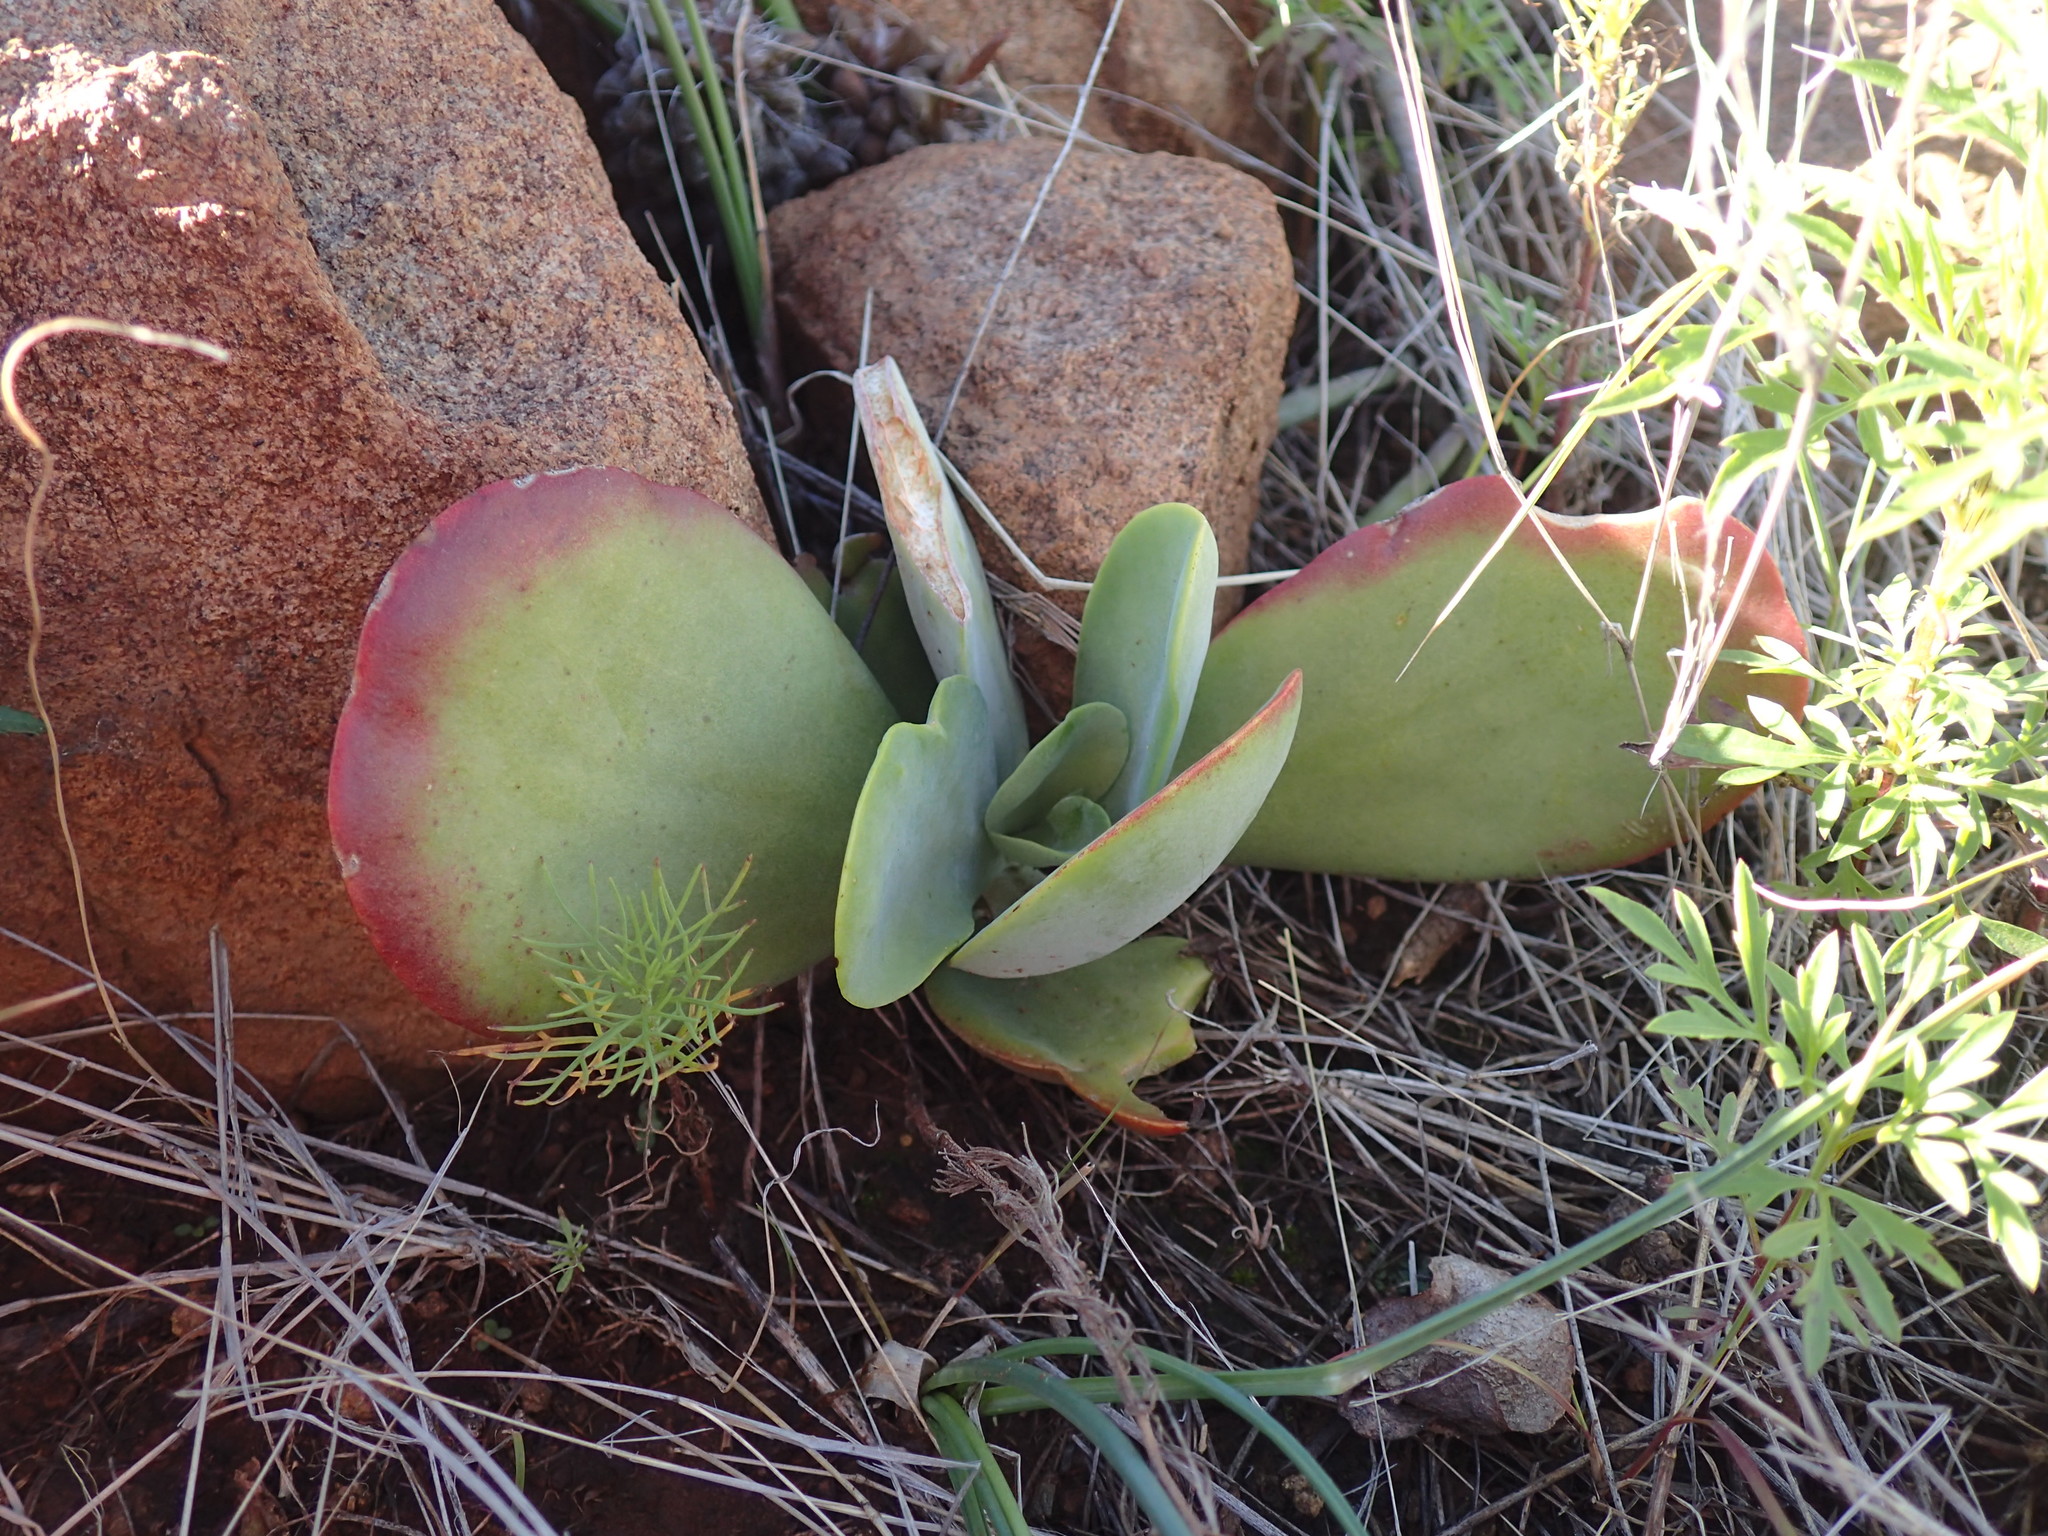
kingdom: Plantae
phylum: Tracheophyta
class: Magnoliopsida
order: Saxifragales
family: Crassulaceae
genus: Kalanchoe
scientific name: Kalanchoe thyrsiflora
